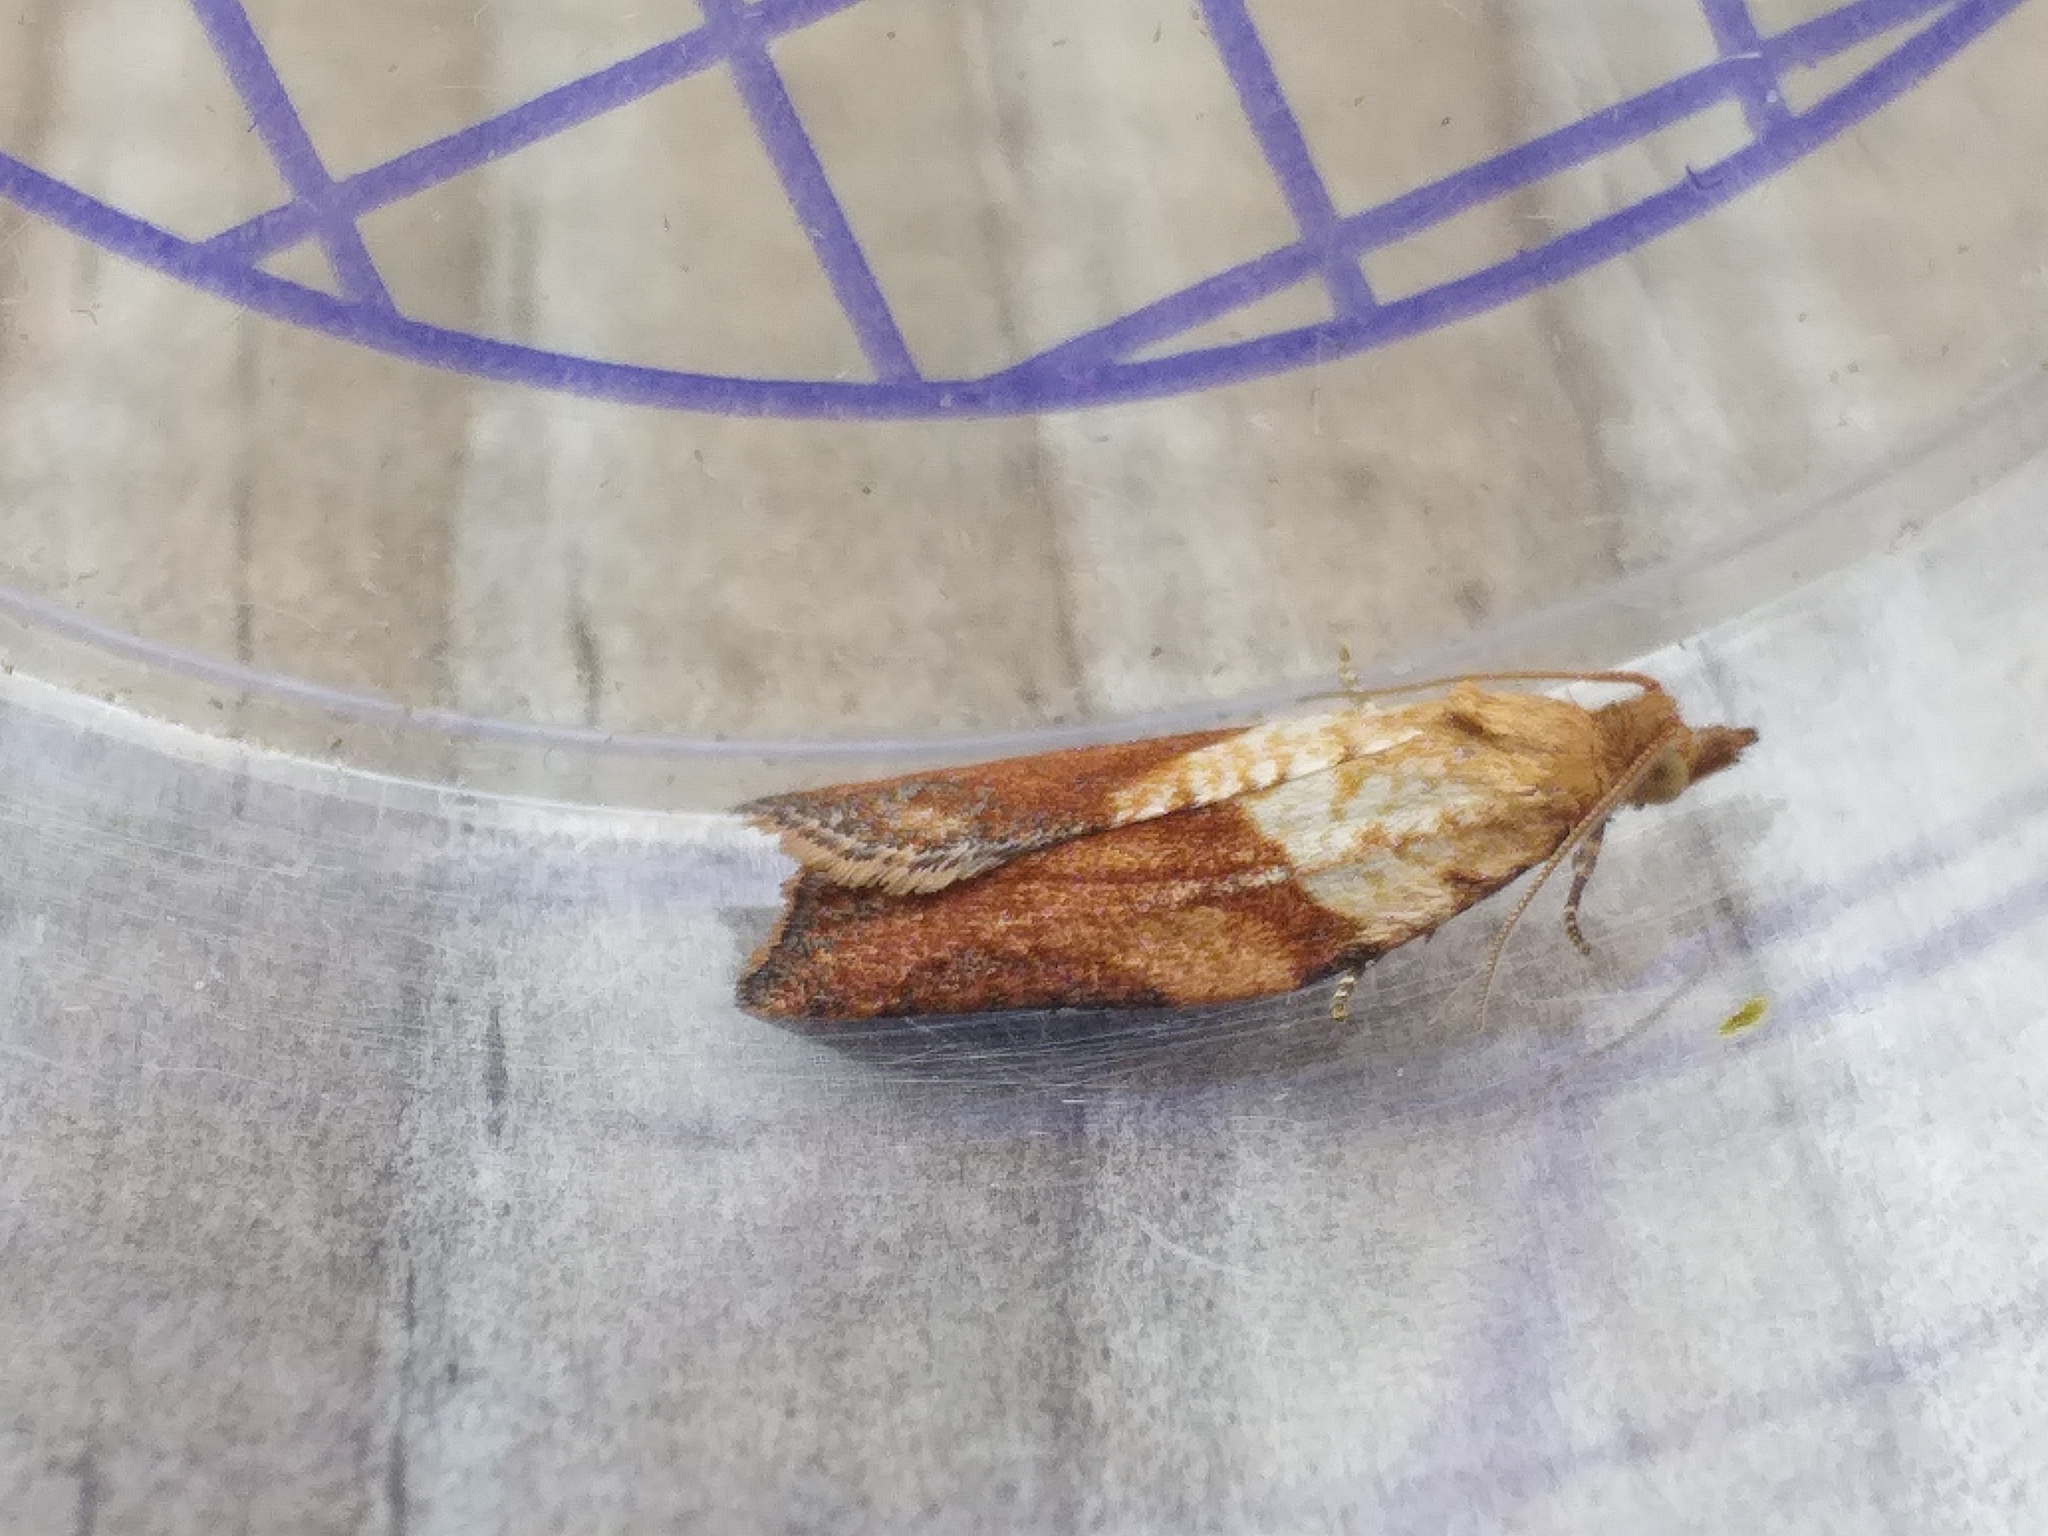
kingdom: Animalia
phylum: Arthropoda
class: Insecta
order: Lepidoptera
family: Tortricidae
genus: Epiphyas
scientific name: Epiphyas postvittana
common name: Light brown apple moth
